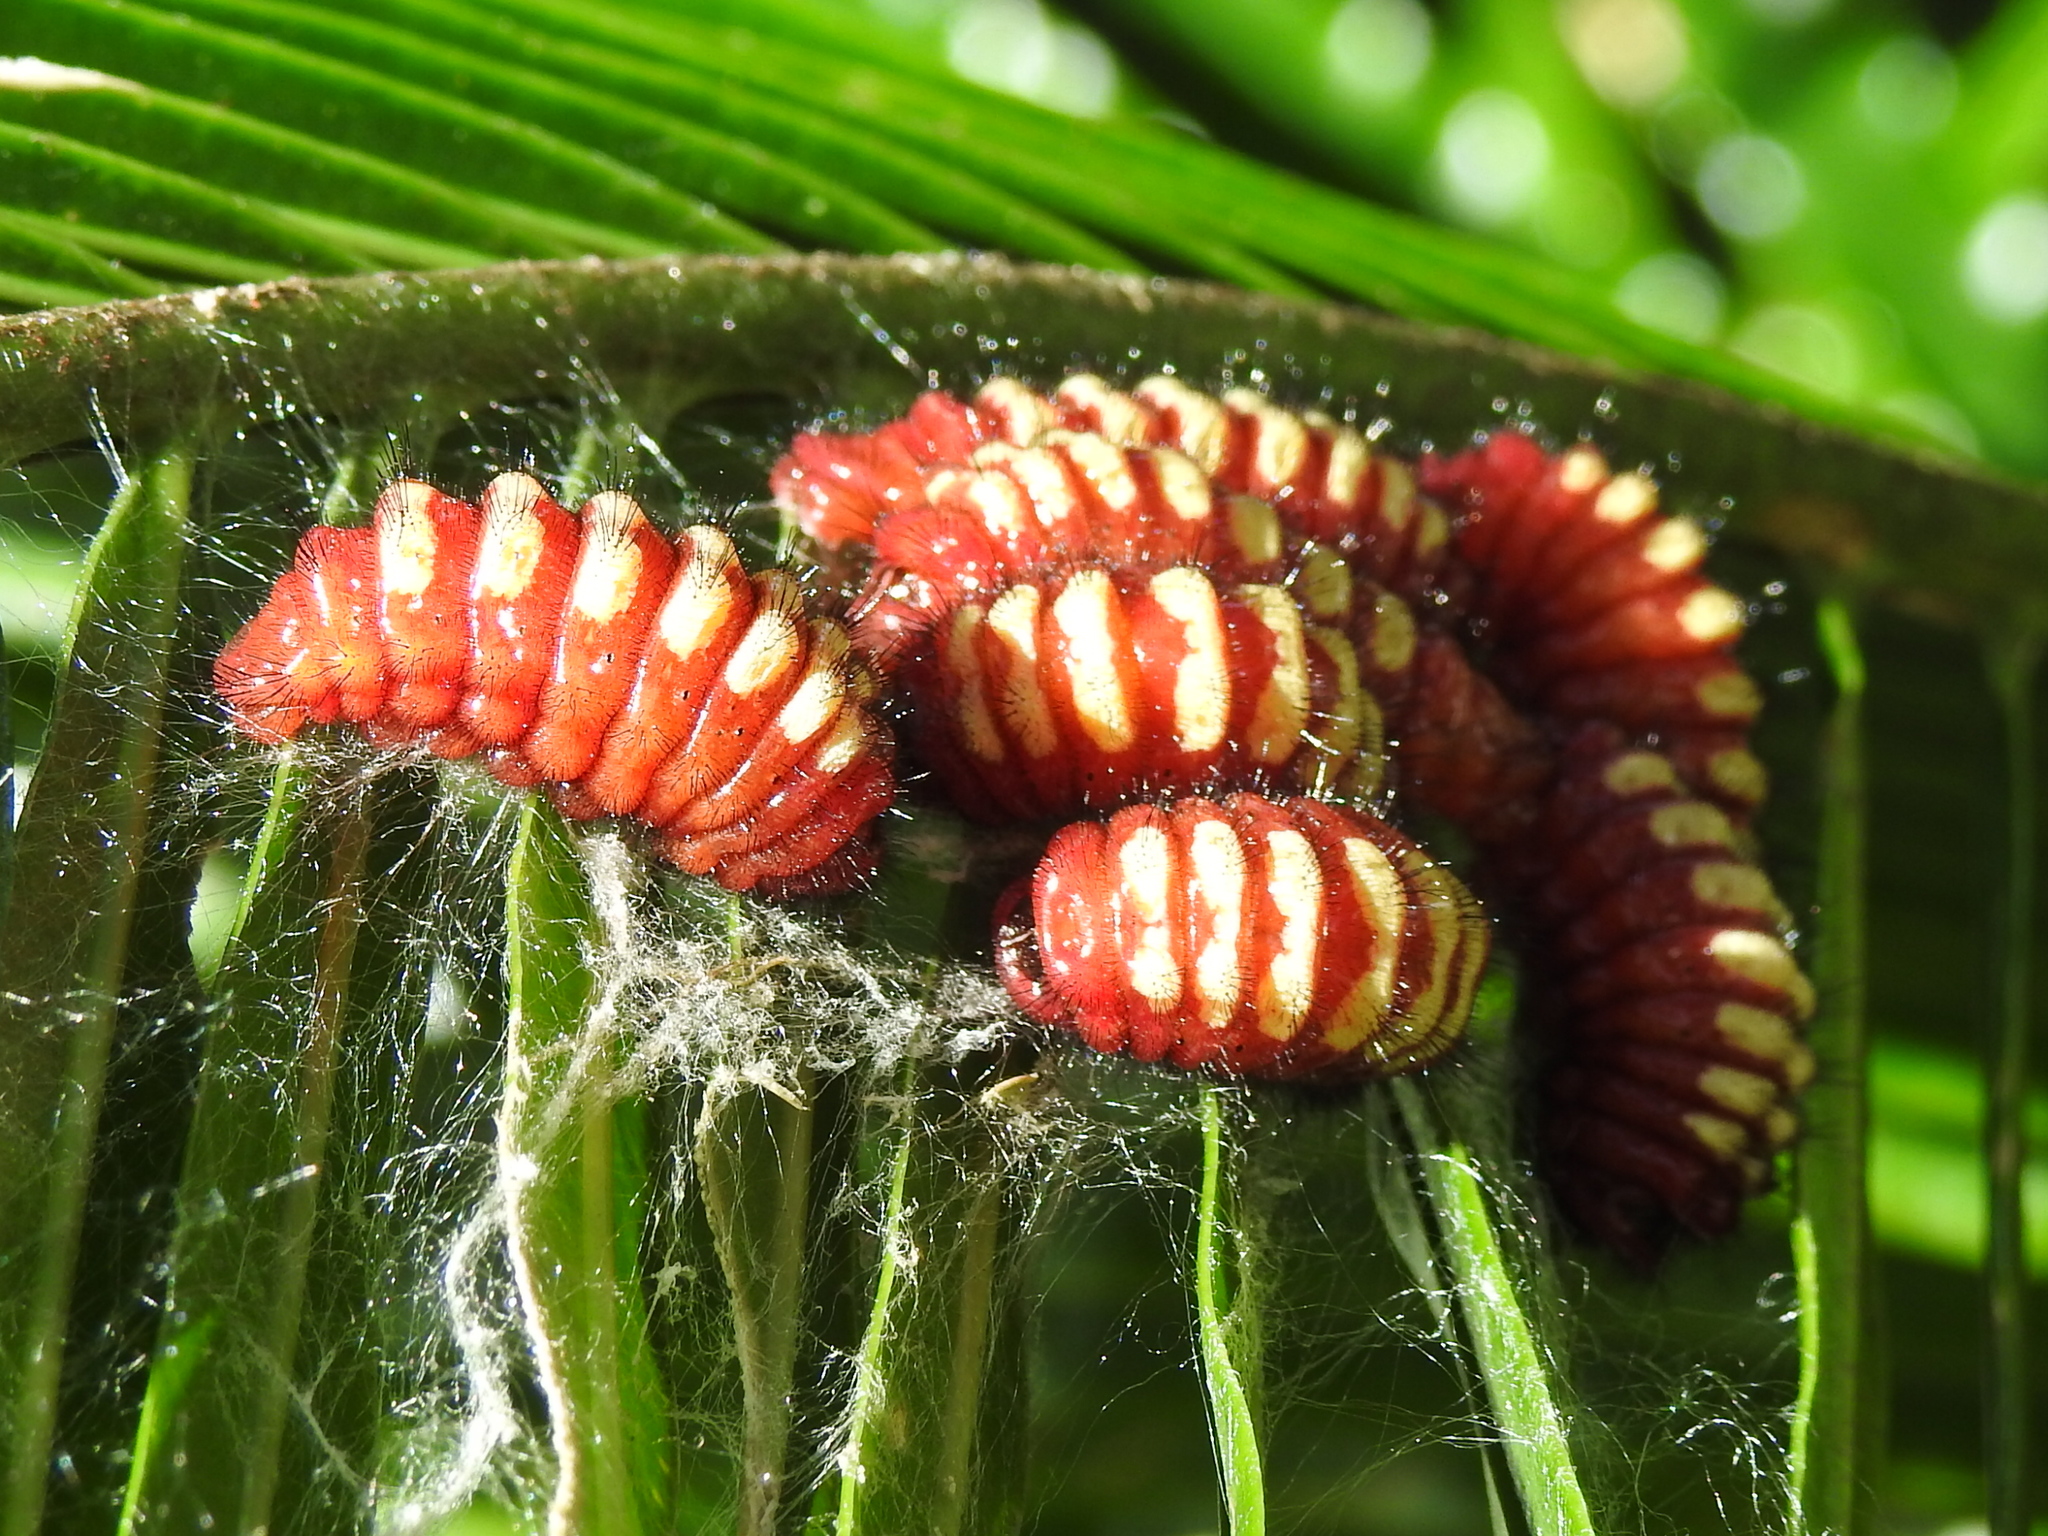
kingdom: Animalia
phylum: Arthropoda
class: Insecta
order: Lepidoptera
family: Lycaenidae
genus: Eumaeus
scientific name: Eumaeus godartii
